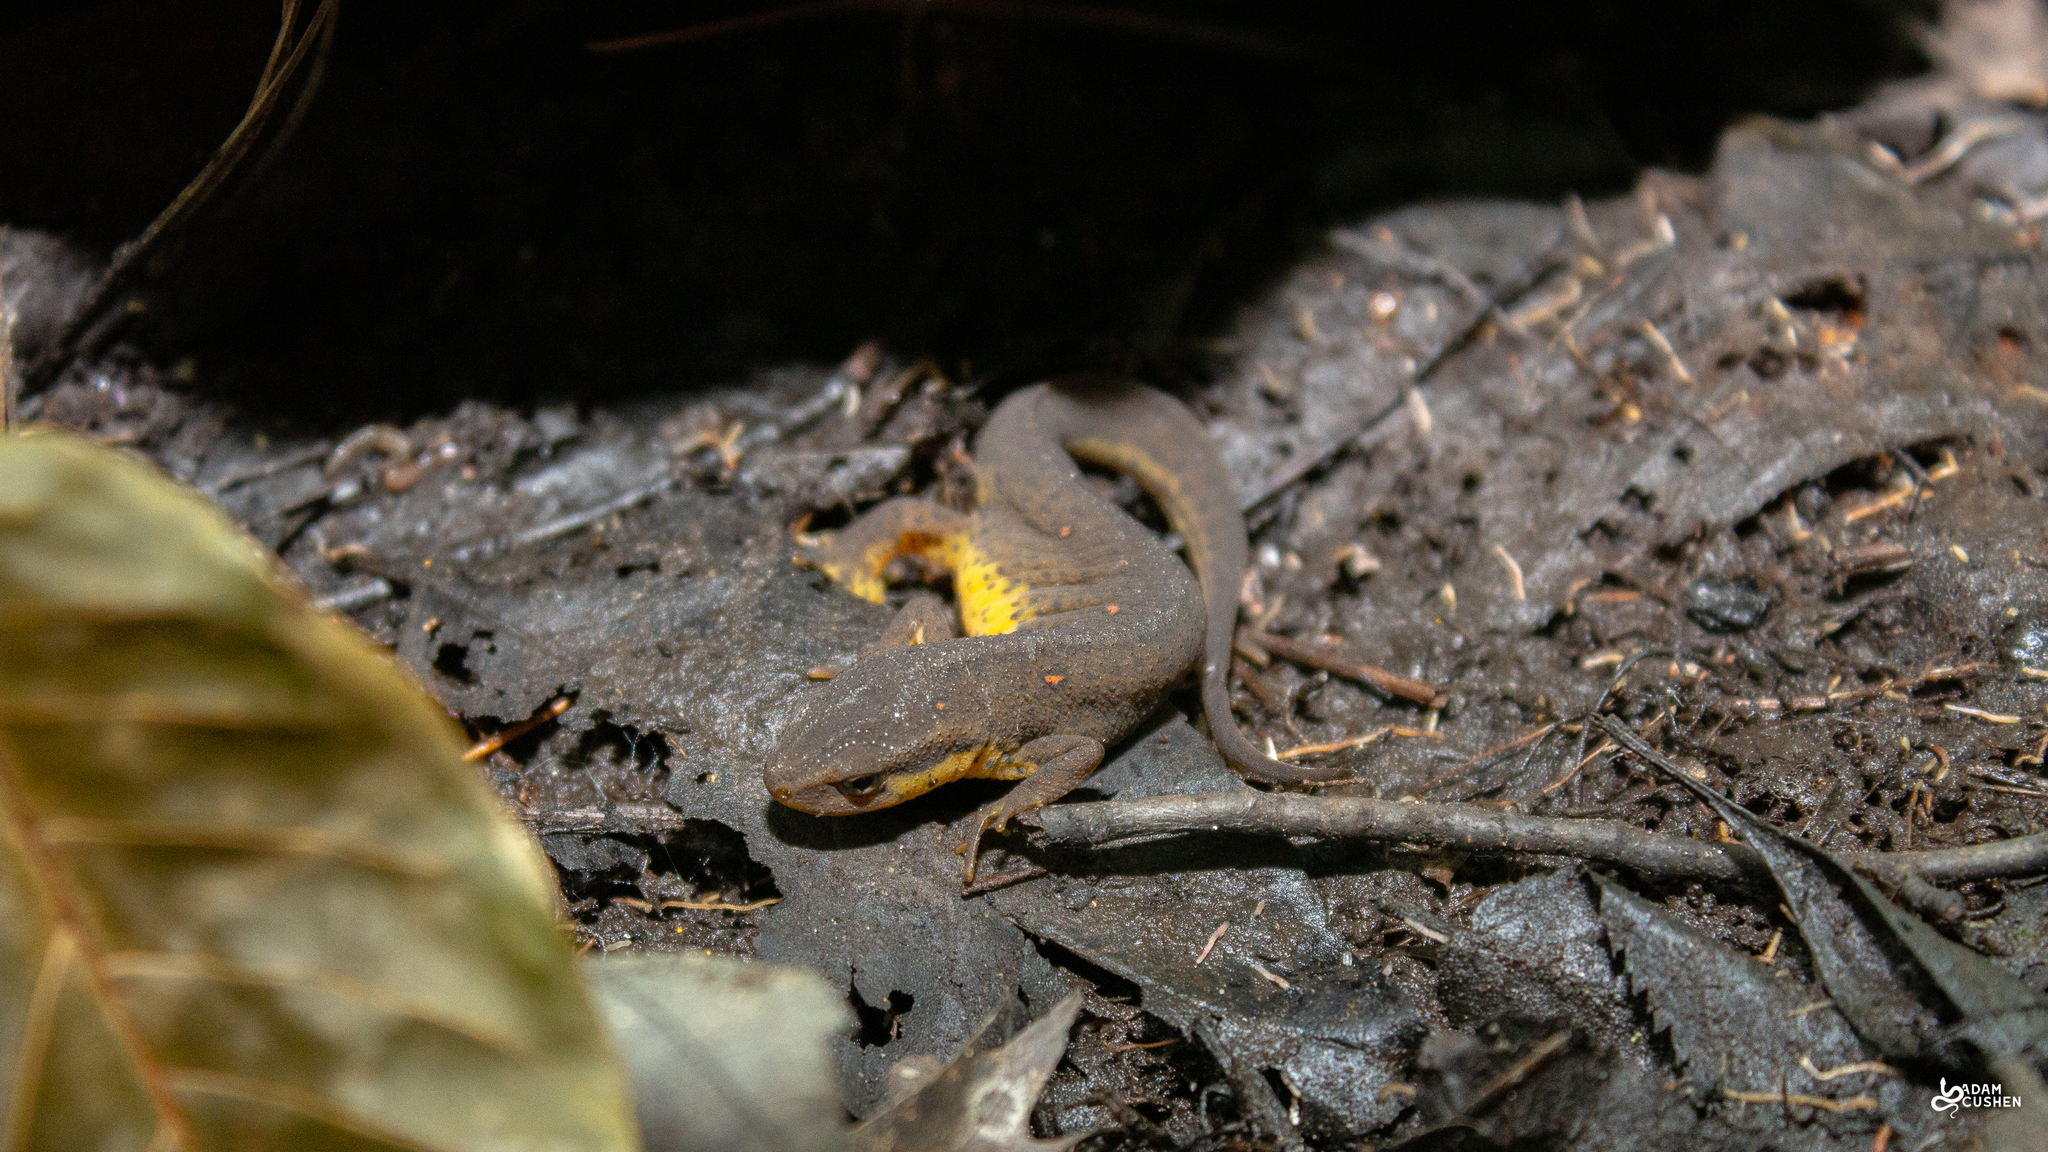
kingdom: Animalia
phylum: Chordata
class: Amphibia
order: Caudata
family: Salamandridae
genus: Notophthalmus
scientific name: Notophthalmus viridescens
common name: Eastern newt
